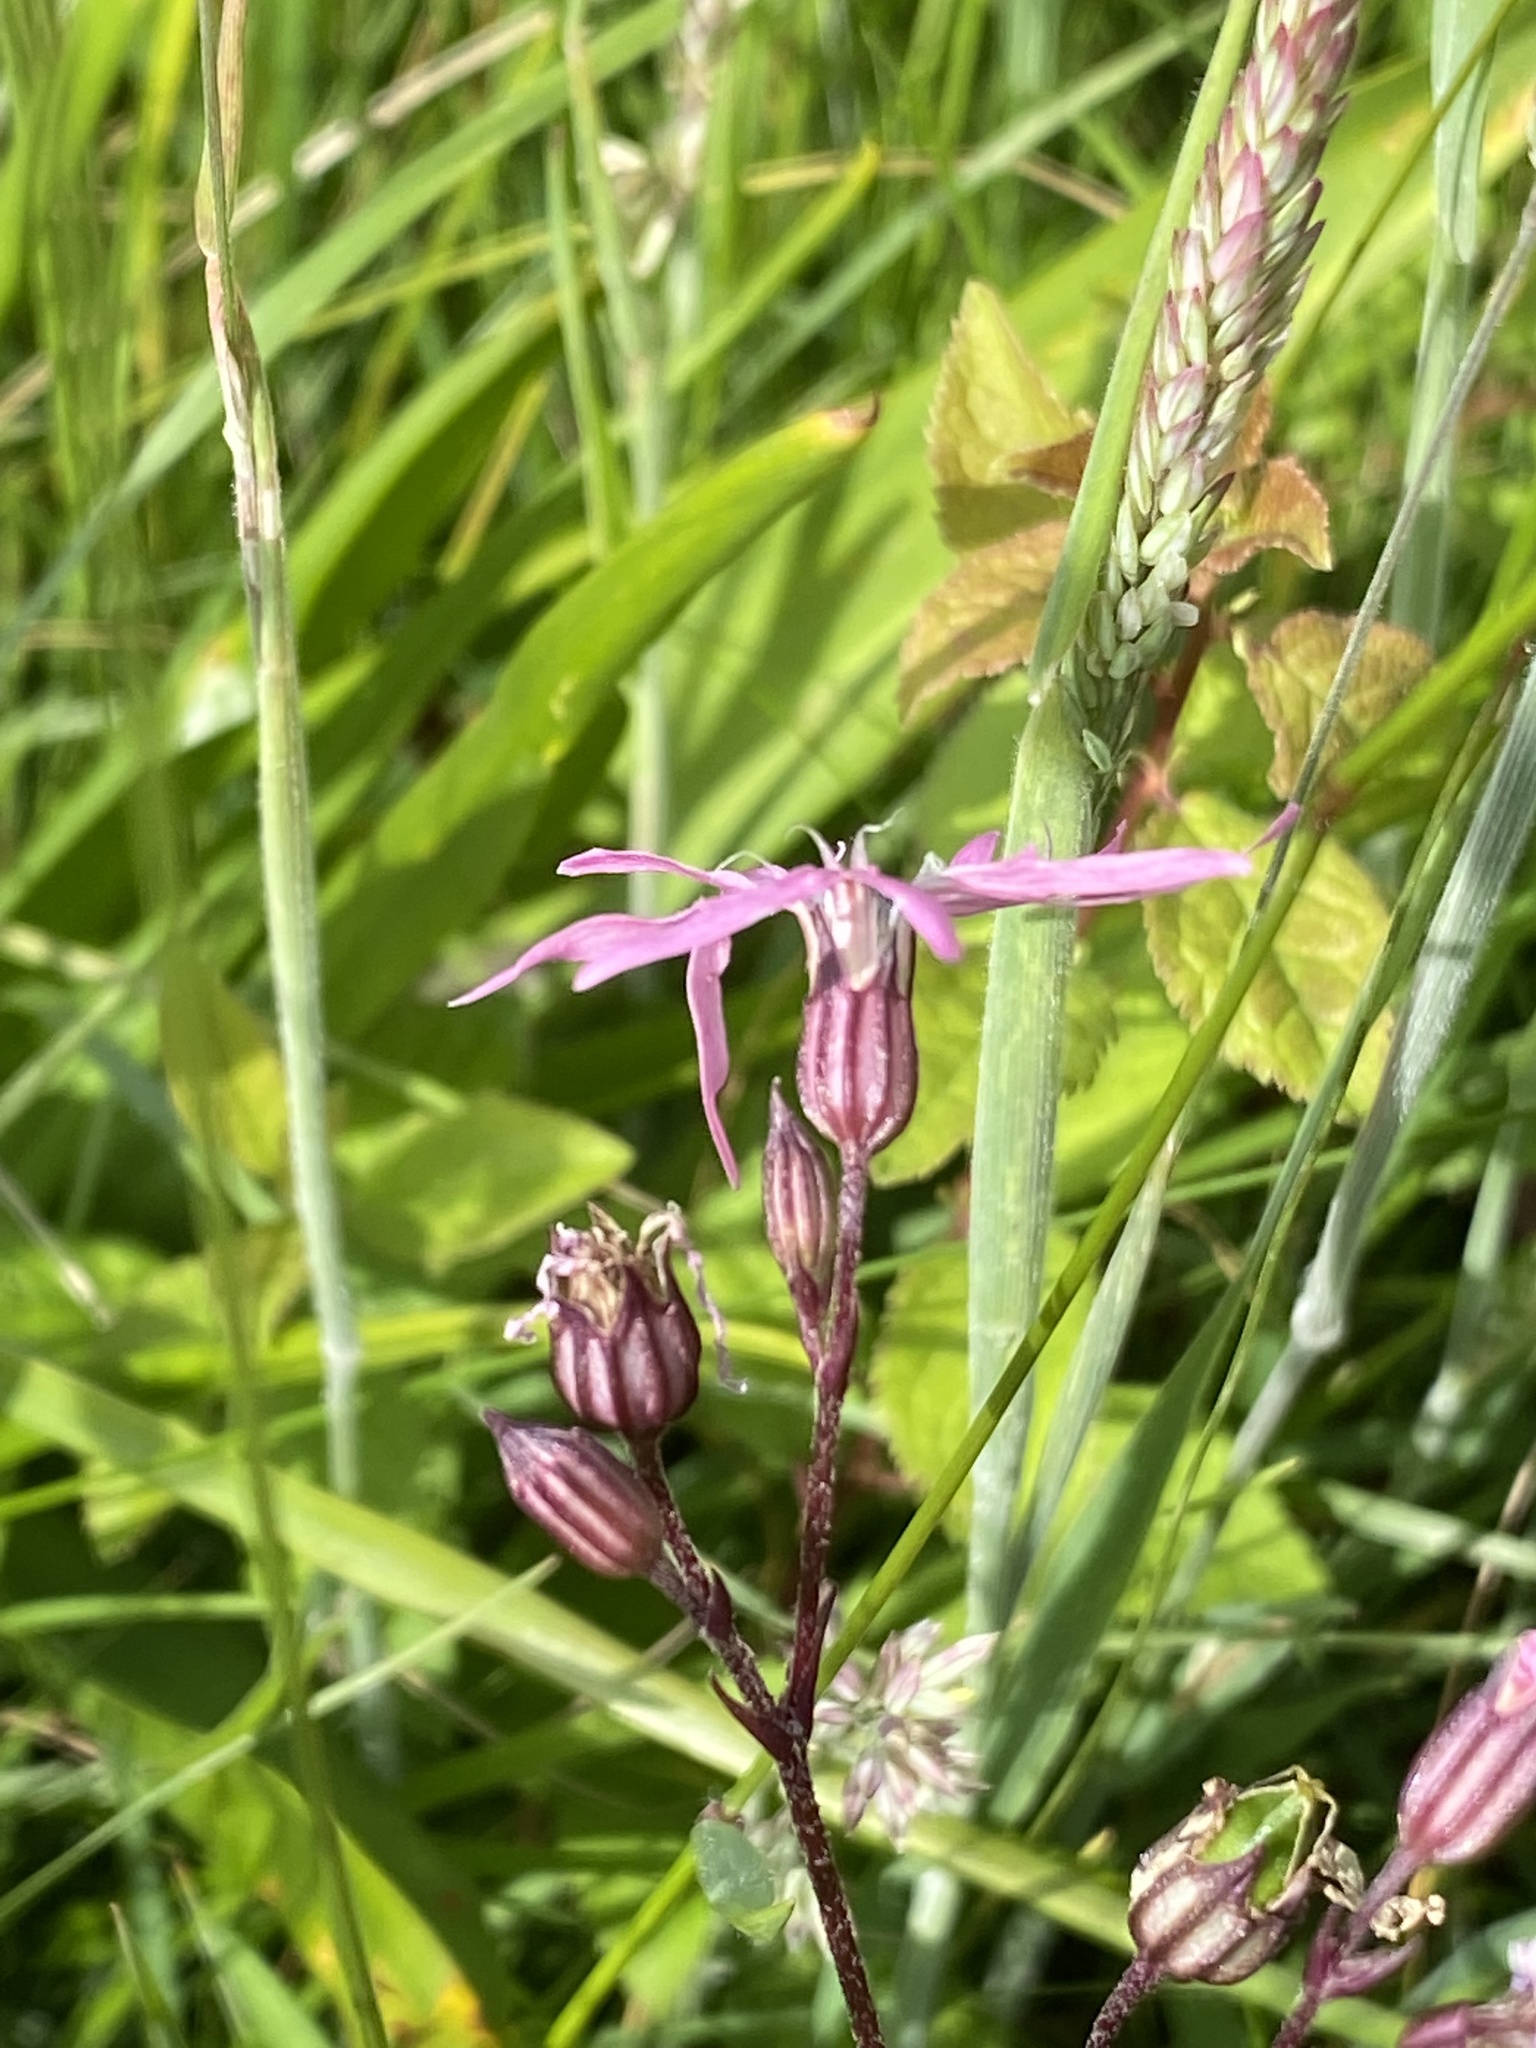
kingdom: Plantae
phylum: Tracheophyta
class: Magnoliopsida
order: Caryophyllales
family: Caryophyllaceae
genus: Silene
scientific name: Silene flos-cuculi
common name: Ragged-robin
